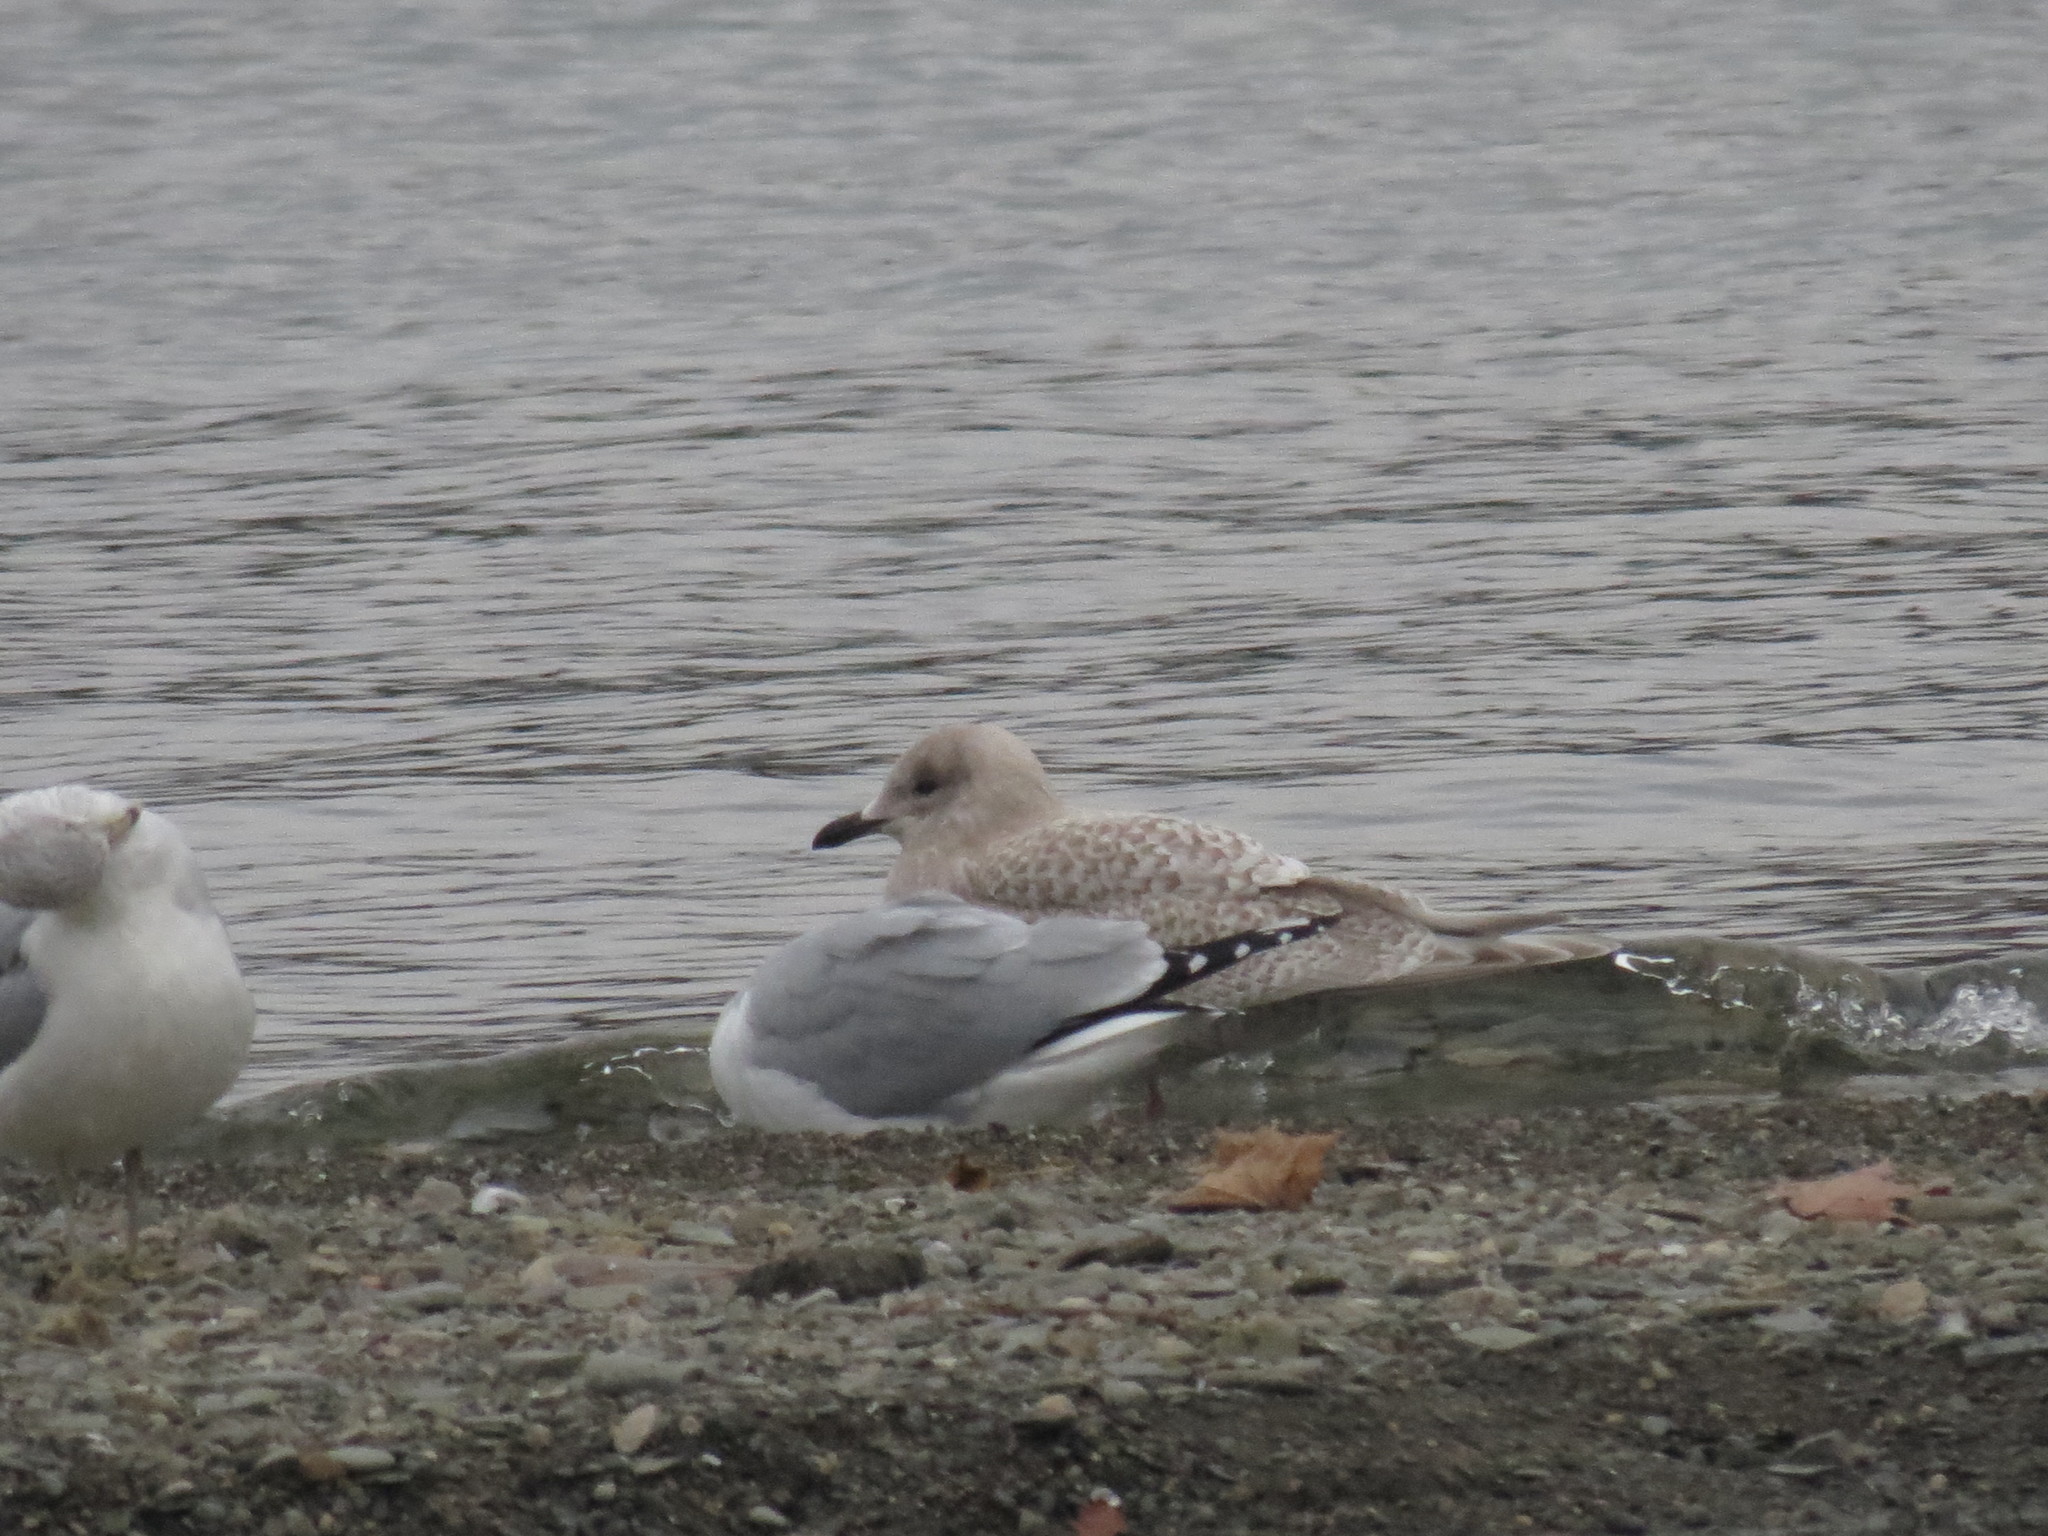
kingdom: Animalia
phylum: Chordata
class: Aves
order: Charadriiformes
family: Laridae
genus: Larus
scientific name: Larus glaucoides
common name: Iceland gull
